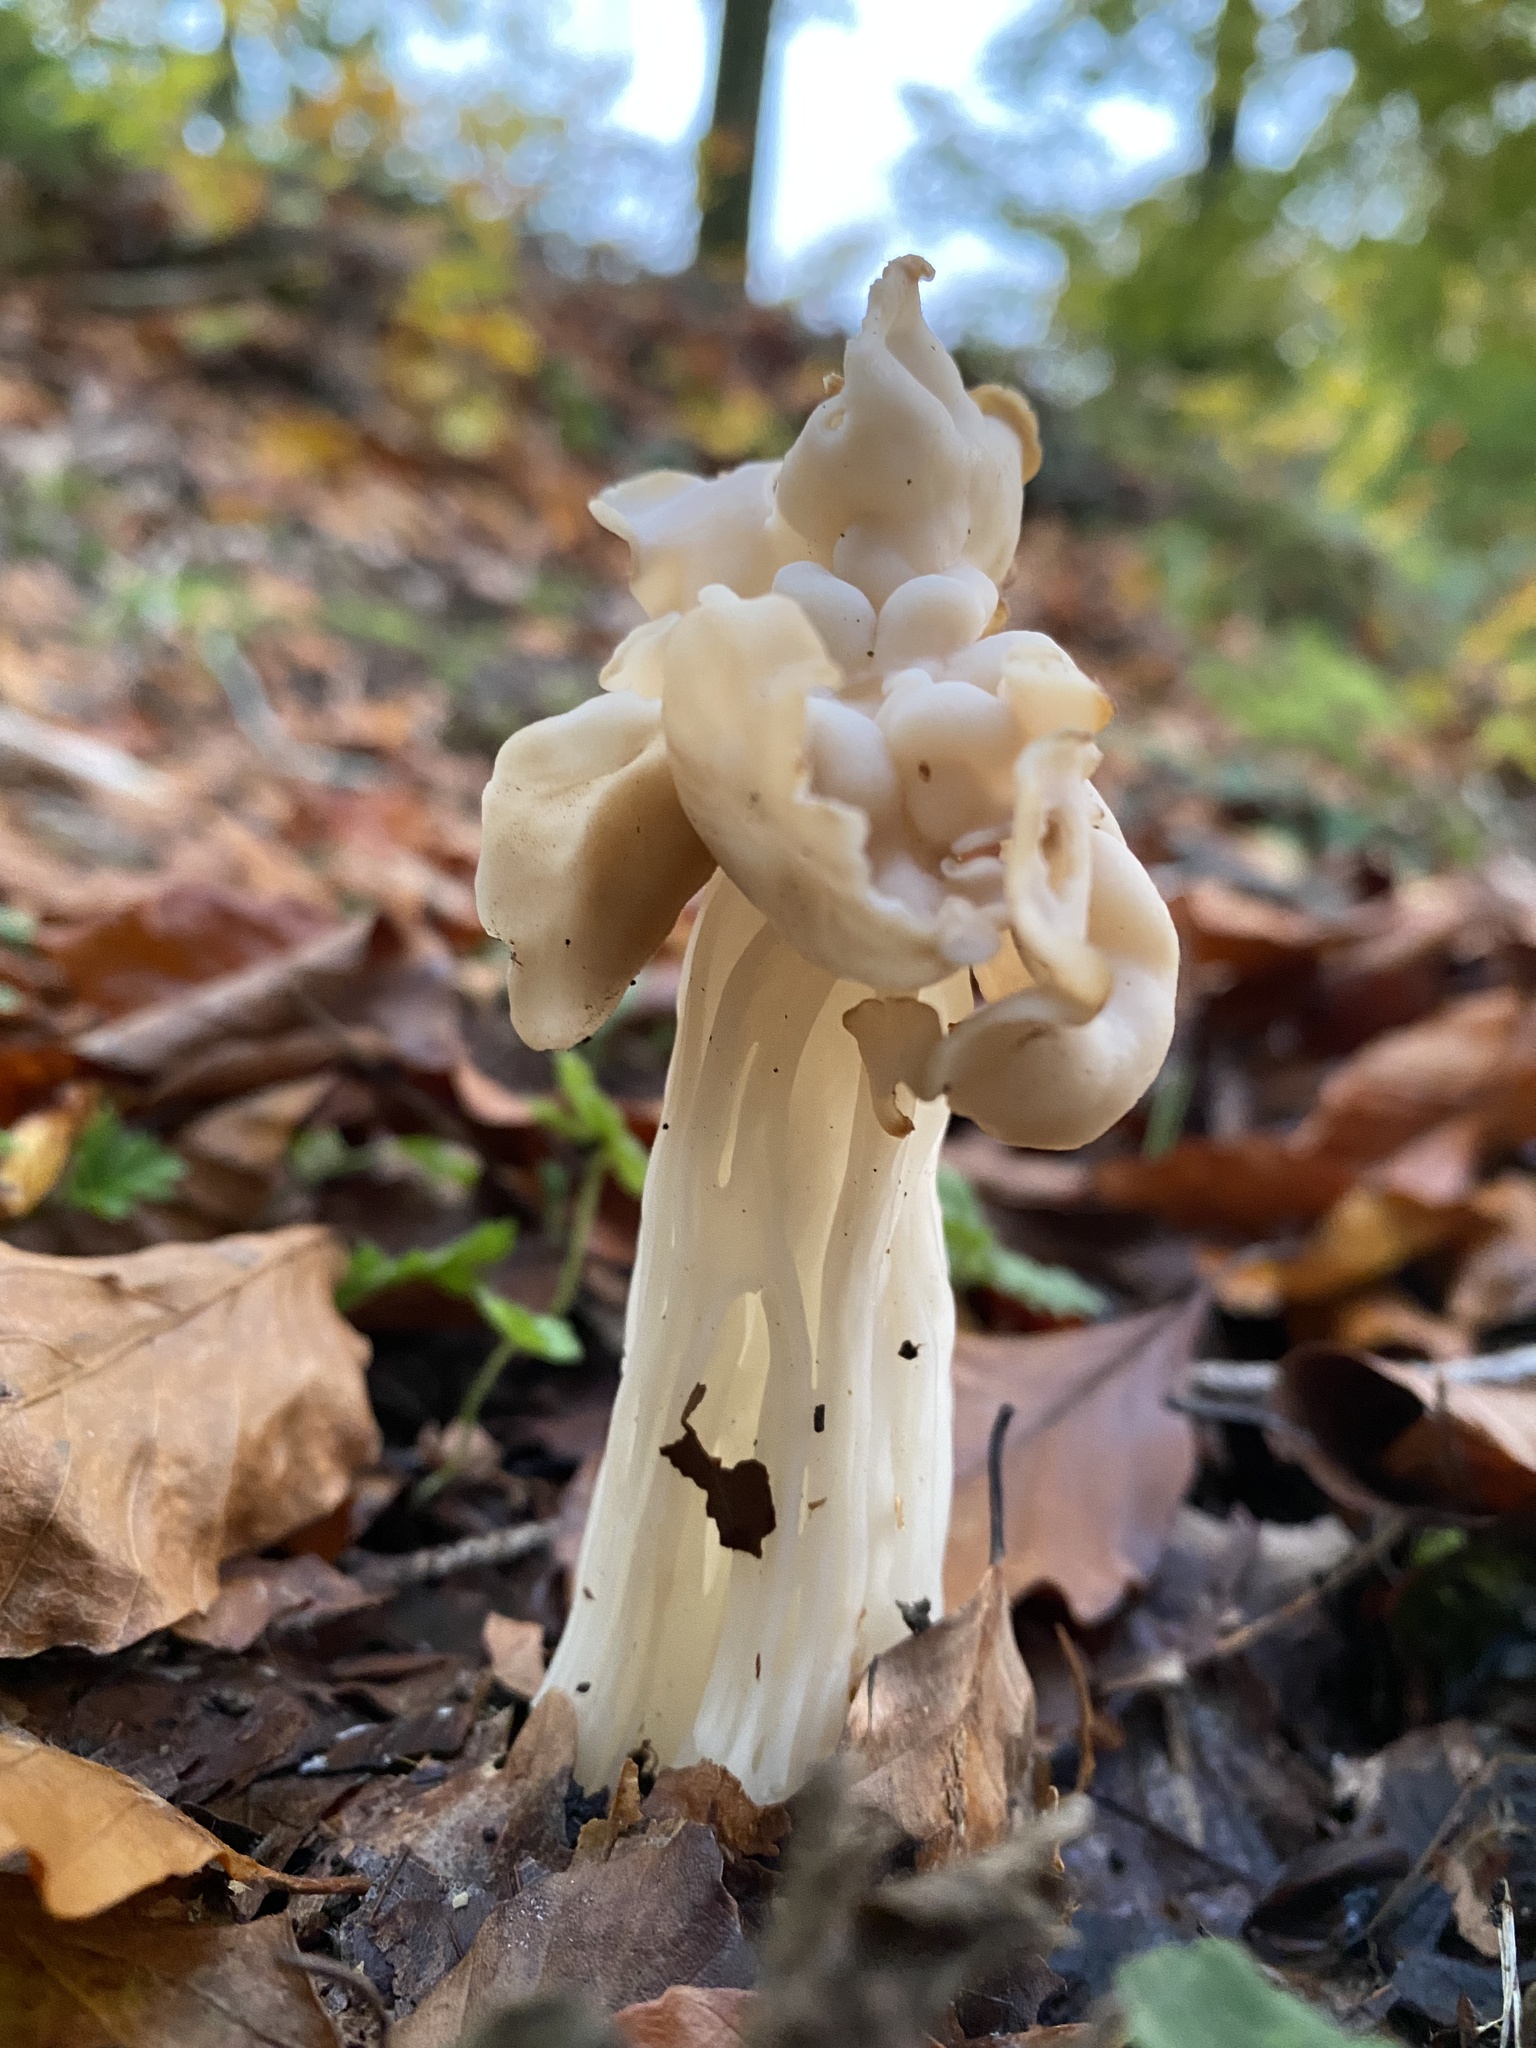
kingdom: Fungi
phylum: Ascomycota
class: Pezizomycetes
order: Pezizales
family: Helvellaceae
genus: Helvella
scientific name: Helvella crispa
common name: White saddle
